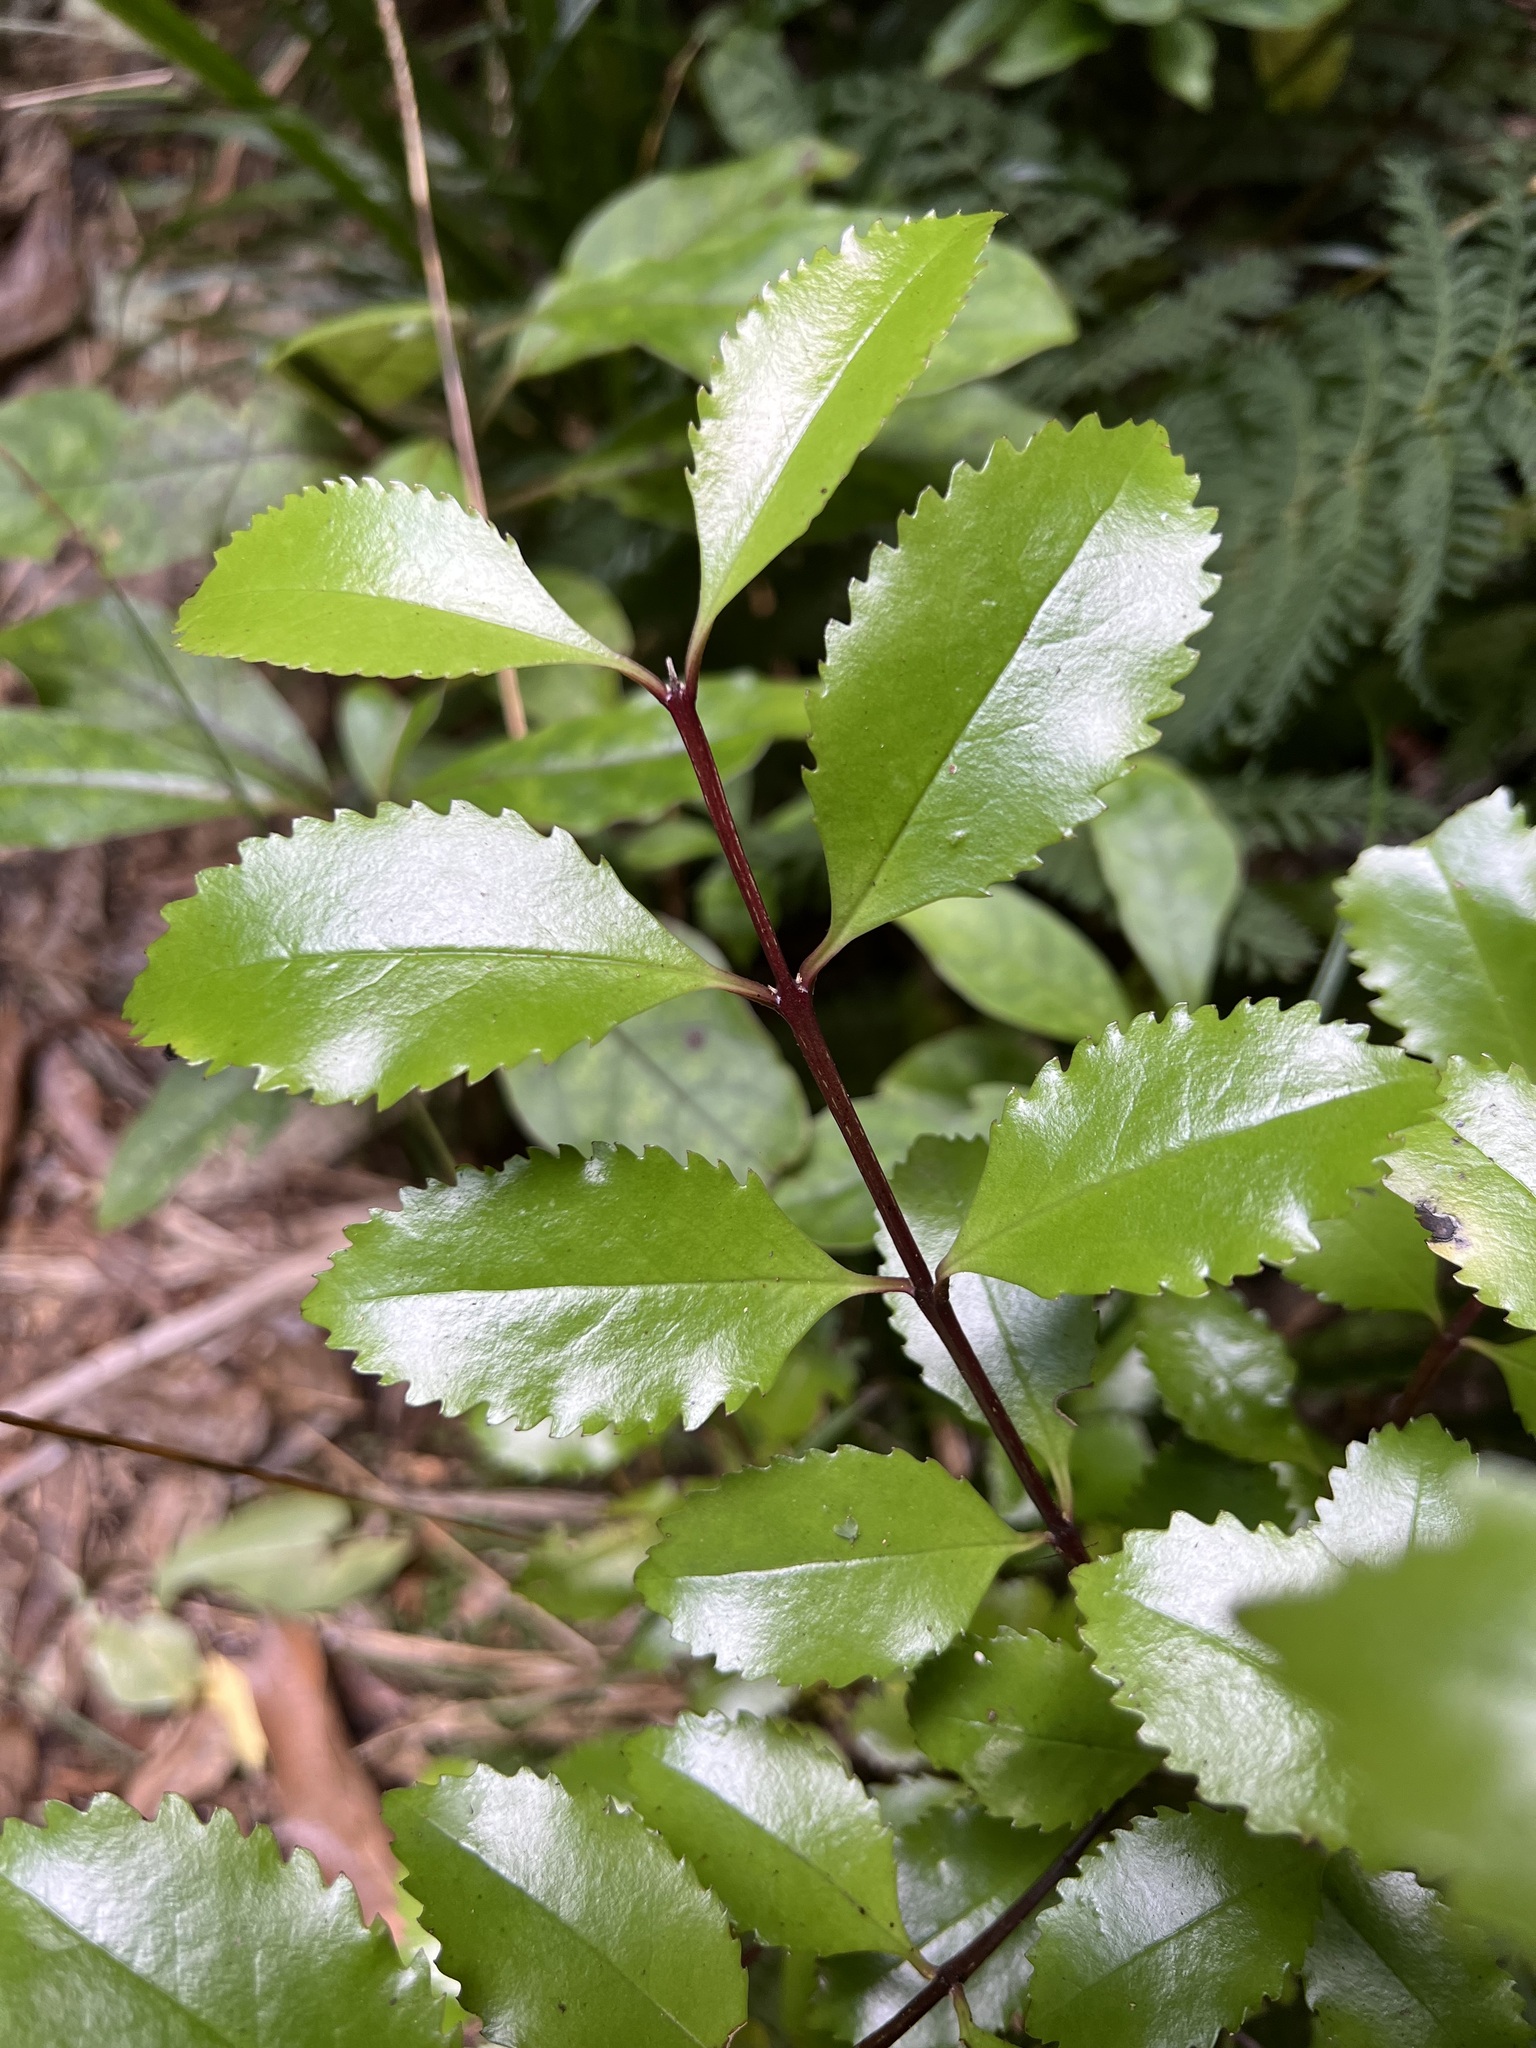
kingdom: Plantae
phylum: Tracheophyta
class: Magnoliopsida
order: Laurales
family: Atherospermataceae
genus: Laurelia
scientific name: Laurelia novae-zelandiae
